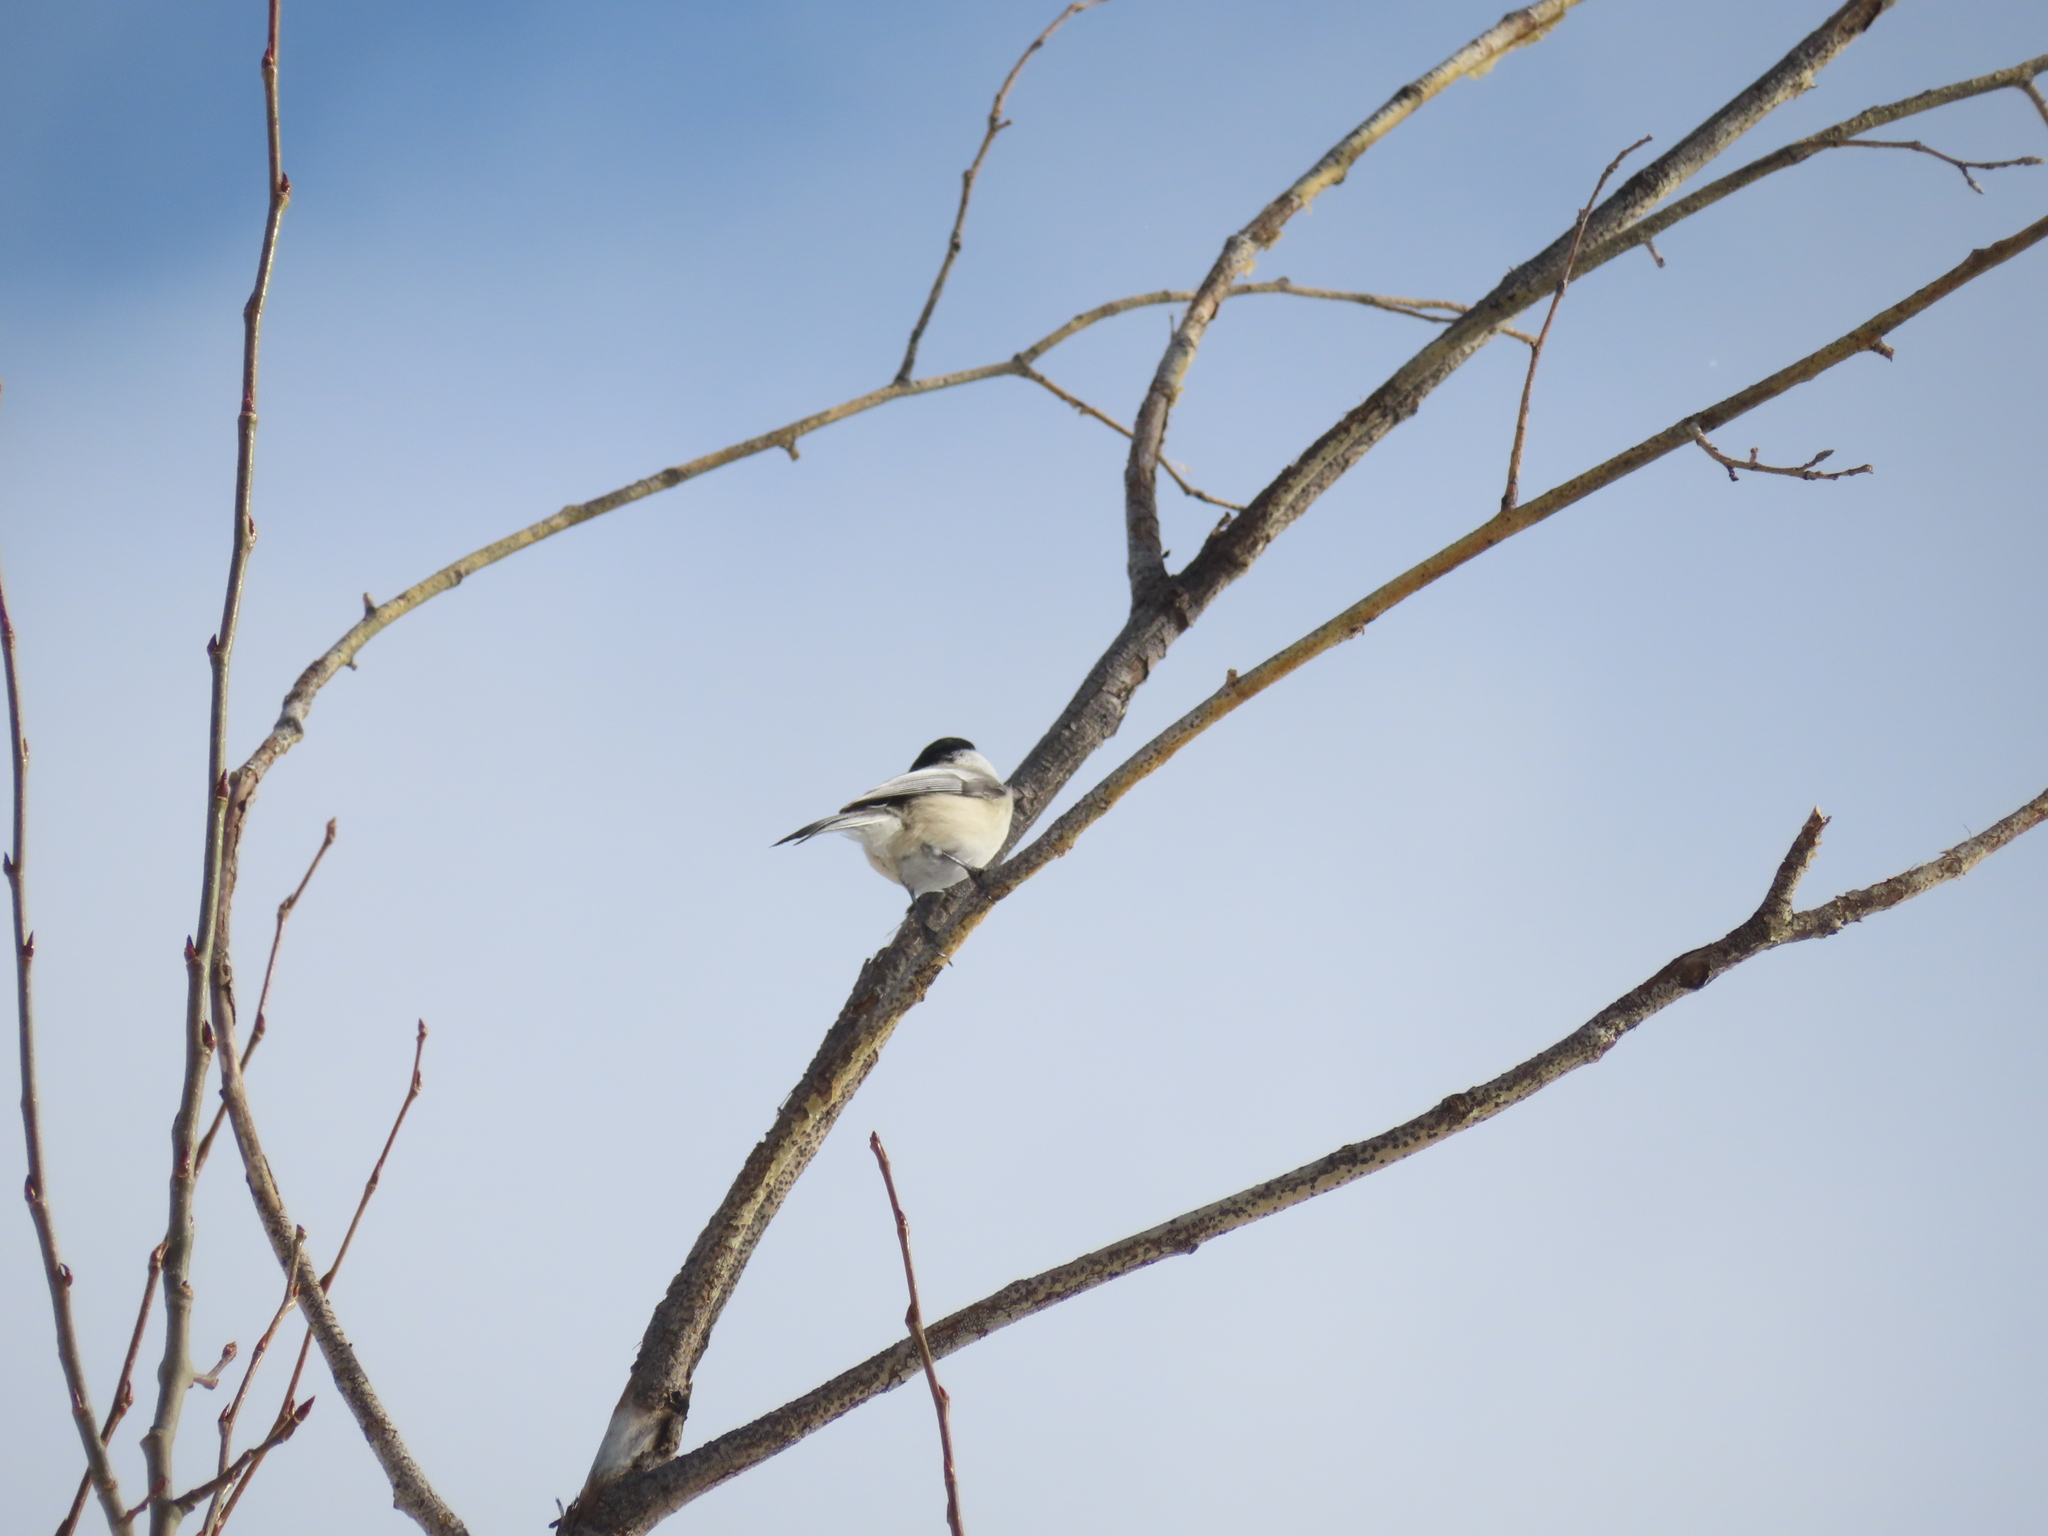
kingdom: Animalia
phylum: Chordata
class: Aves
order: Passeriformes
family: Paridae
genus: Poecile
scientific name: Poecile atricapillus
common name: Black-capped chickadee
